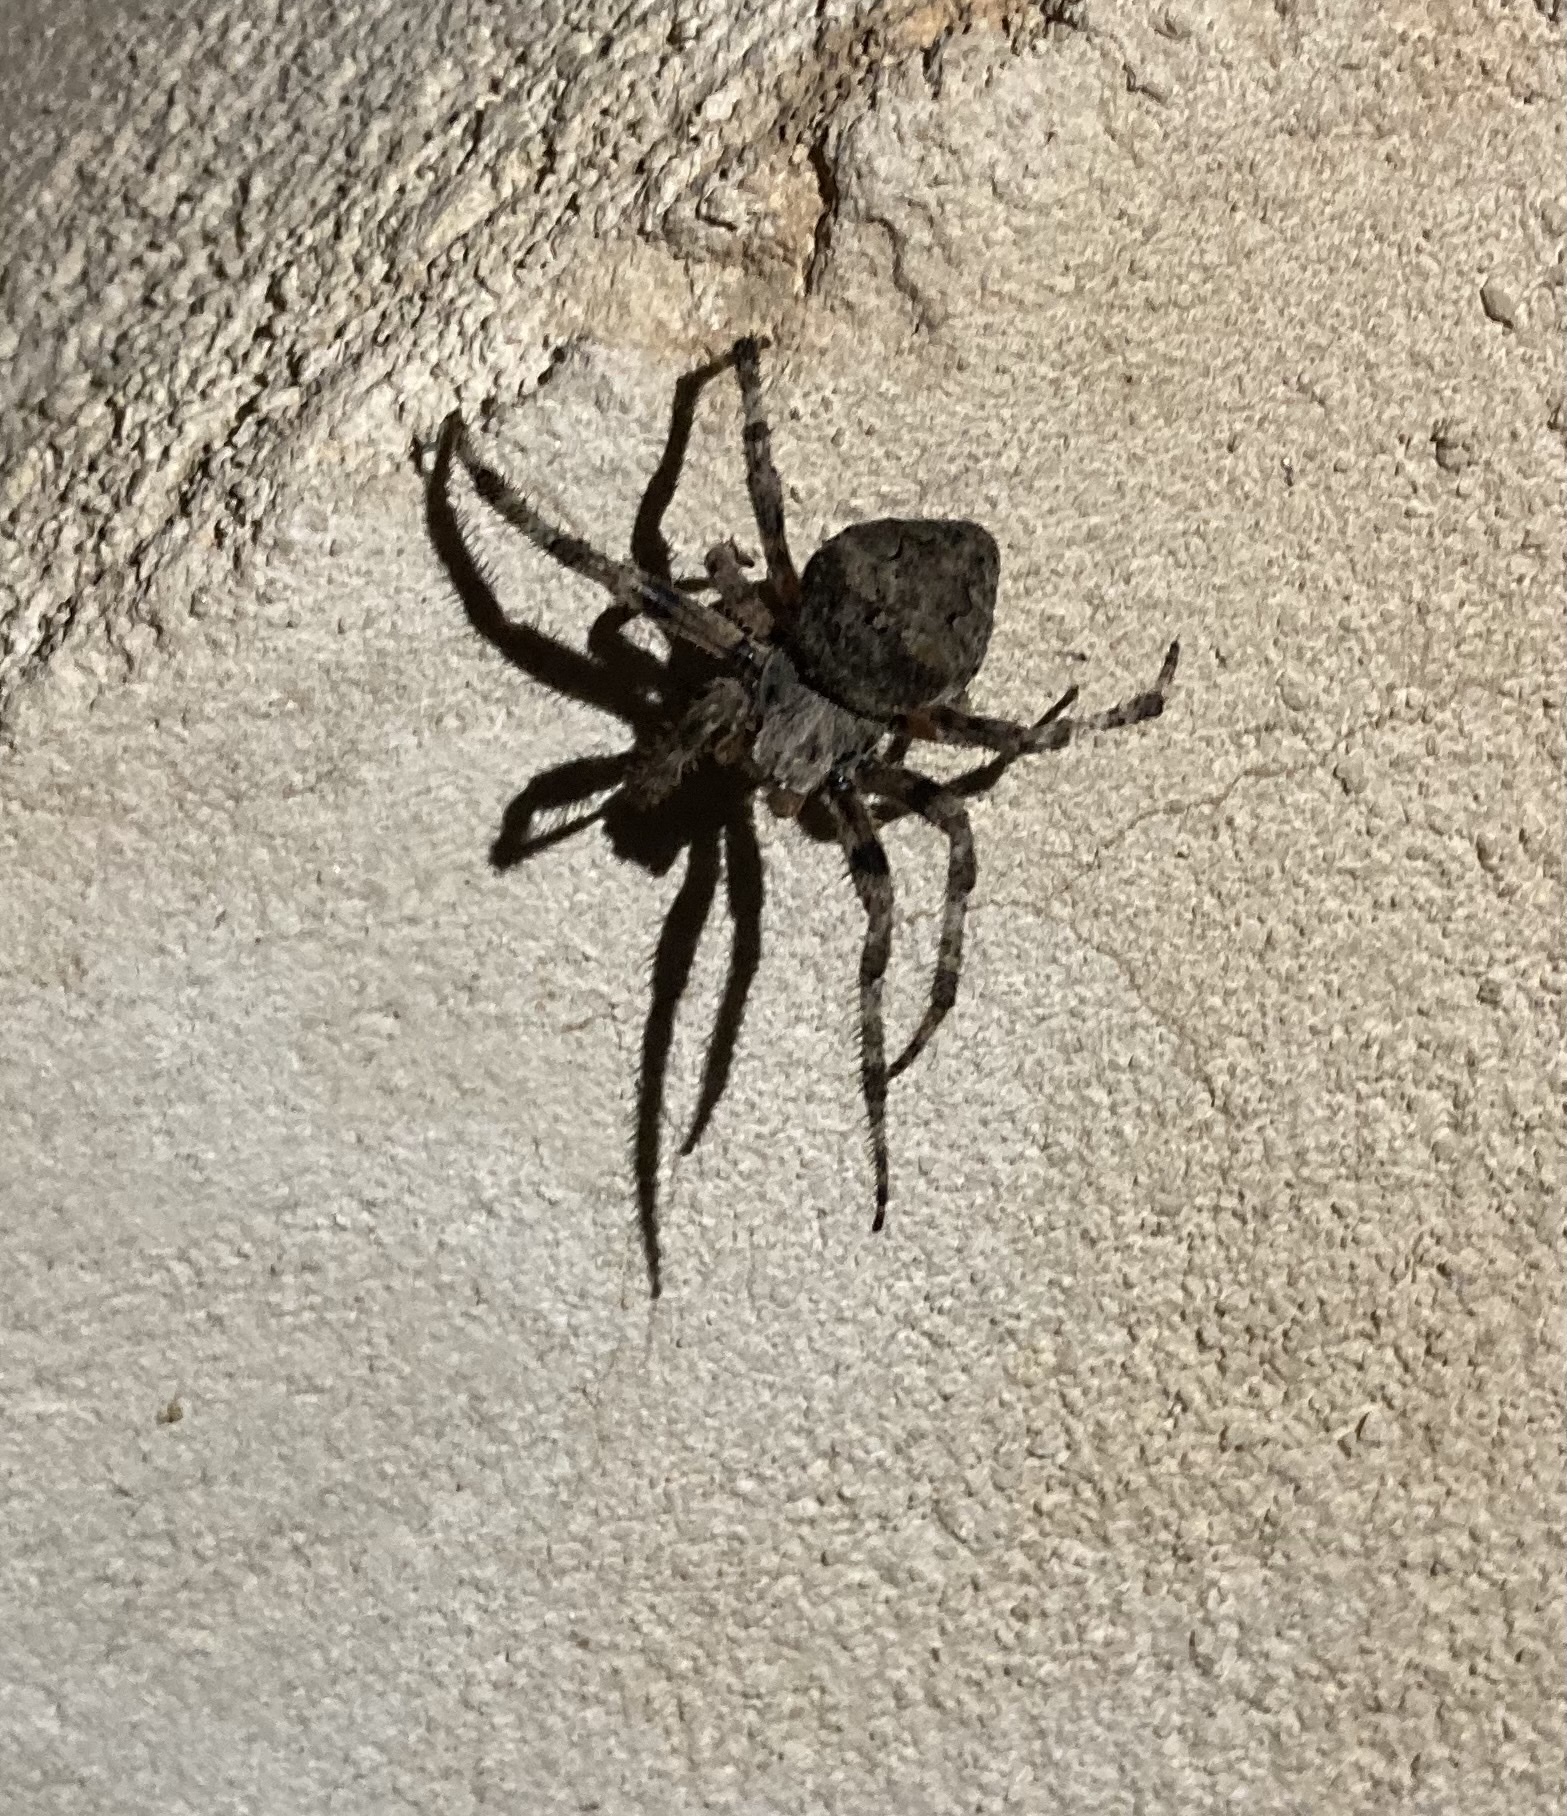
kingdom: Animalia
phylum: Arthropoda
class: Arachnida
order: Araneae
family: Araneidae
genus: Araneus
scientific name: Araneus angulatus
